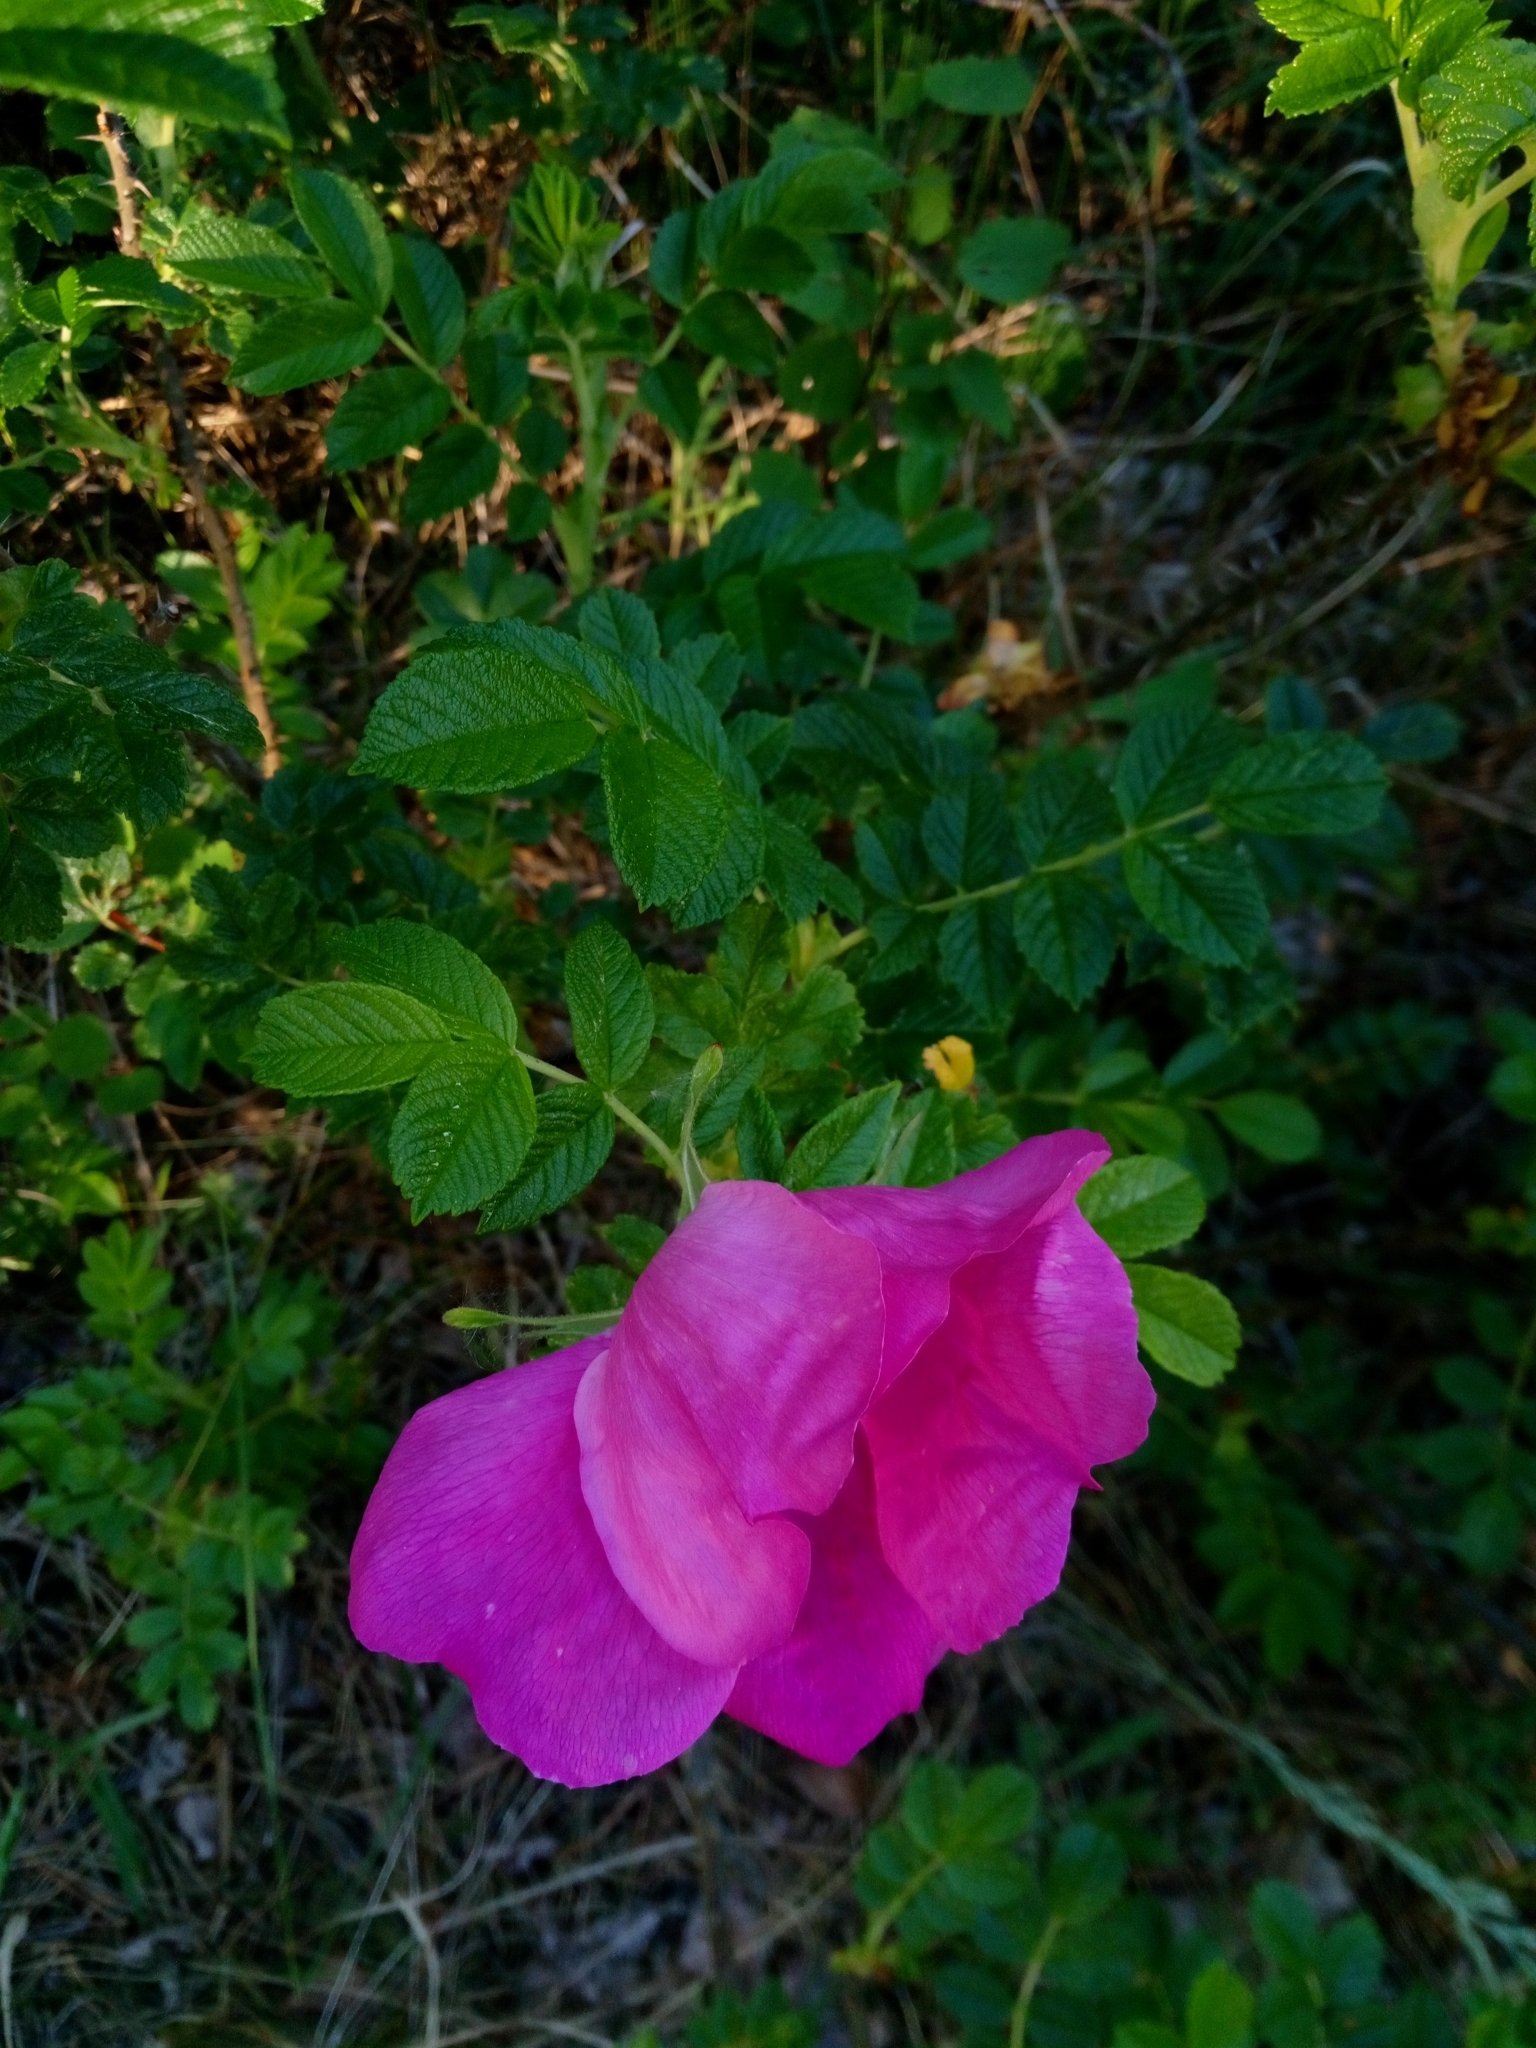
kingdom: Plantae
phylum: Tracheophyta
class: Magnoliopsida
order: Rosales
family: Rosaceae
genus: Rosa
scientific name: Rosa rugosa
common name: Japanese rose
